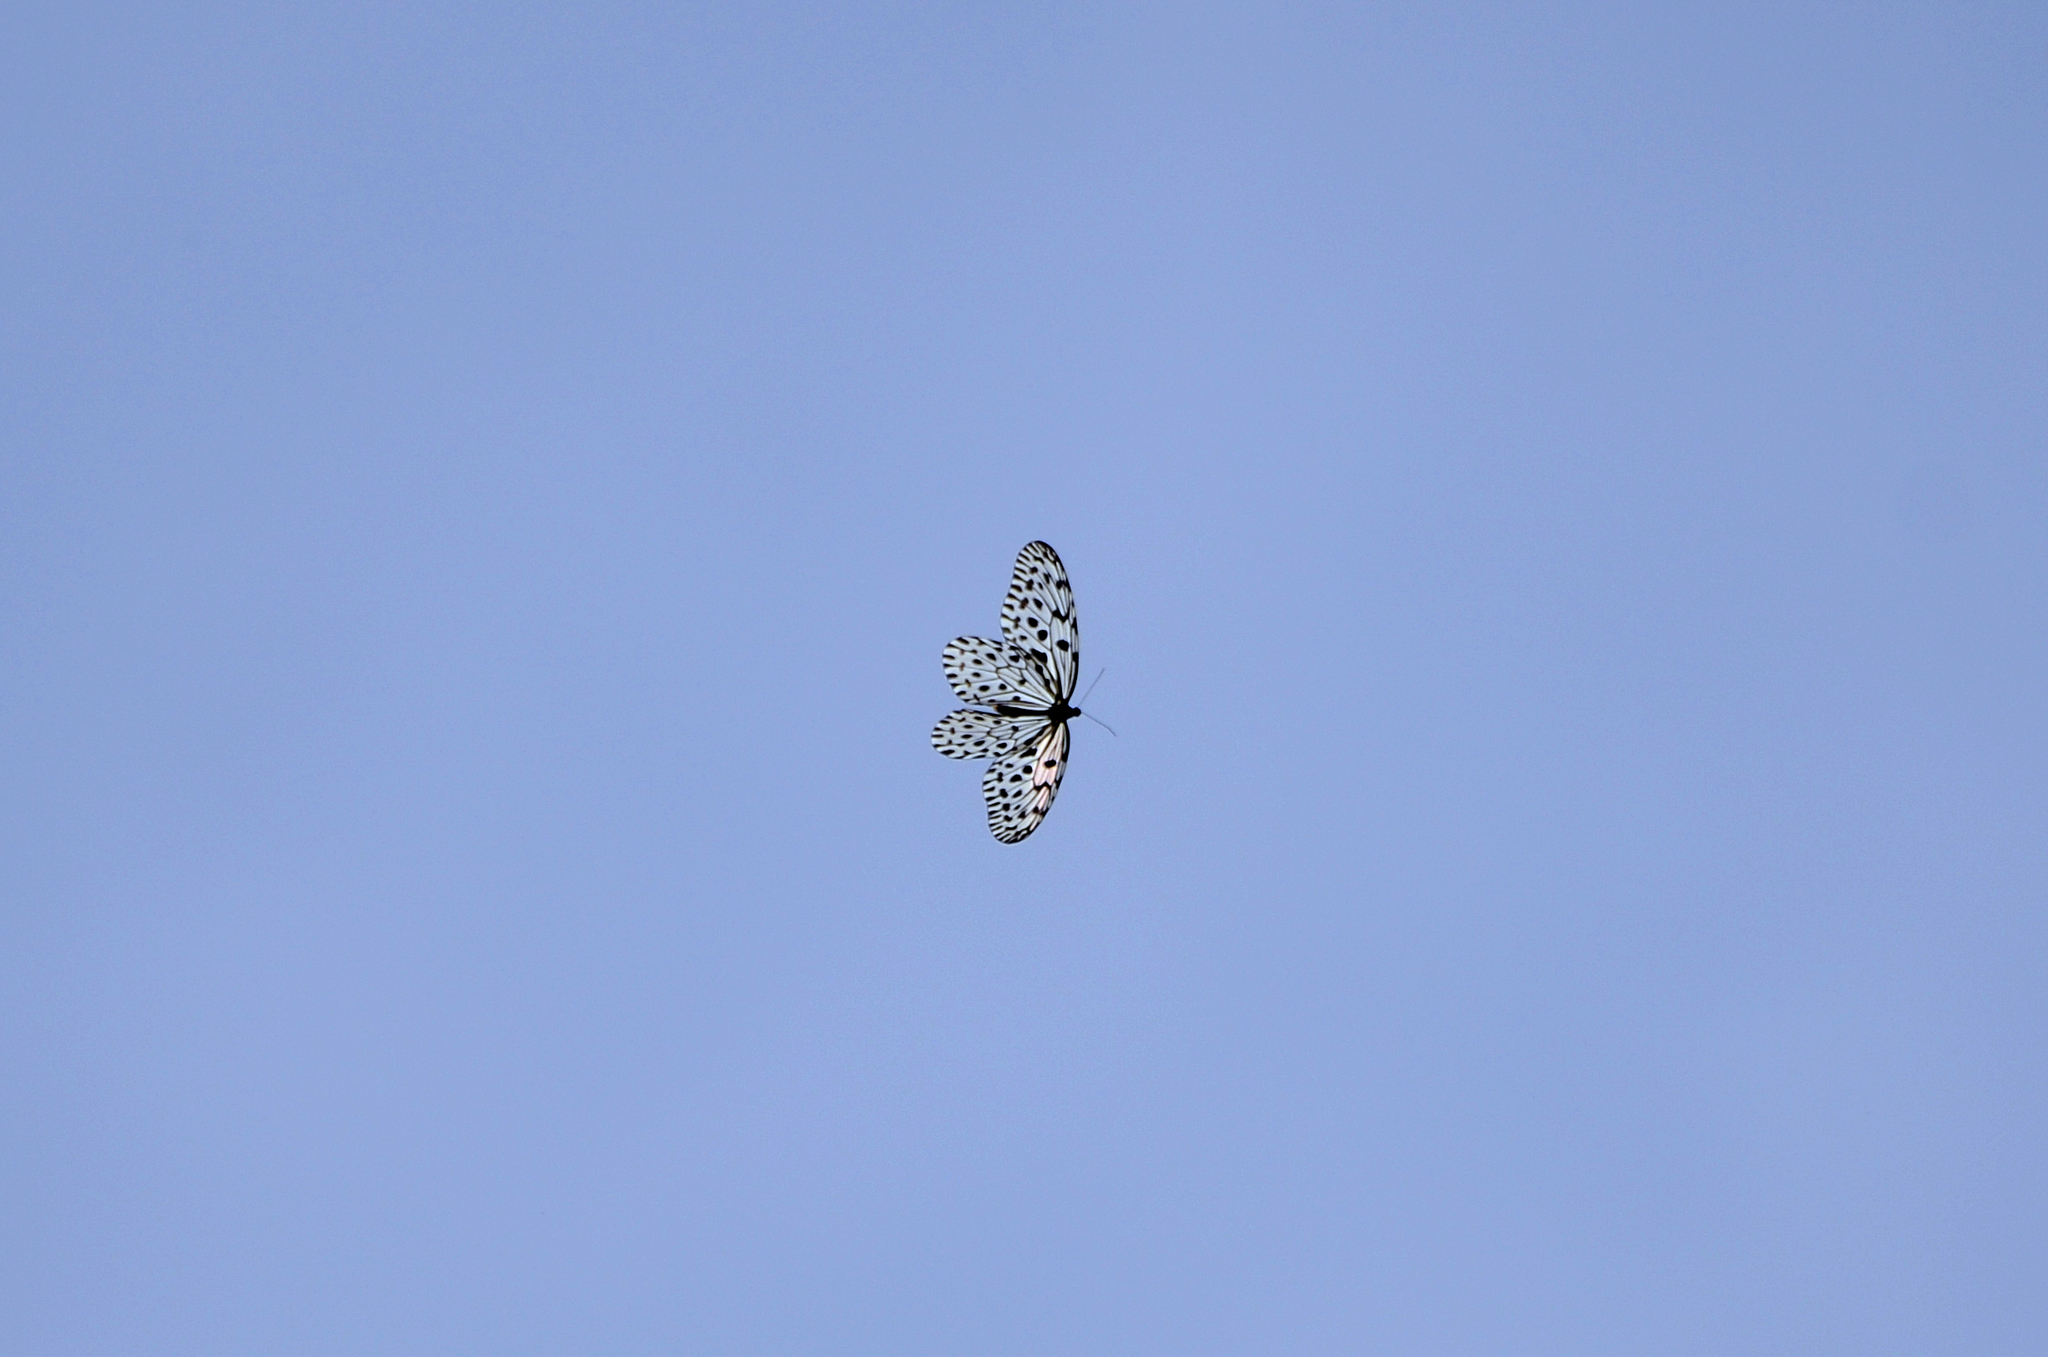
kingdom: Animalia
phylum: Arthropoda
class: Insecta
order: Lepidoptera
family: Nymphalidae
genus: Idea
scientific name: Idea malabarica
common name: Malabar tree-nymph
